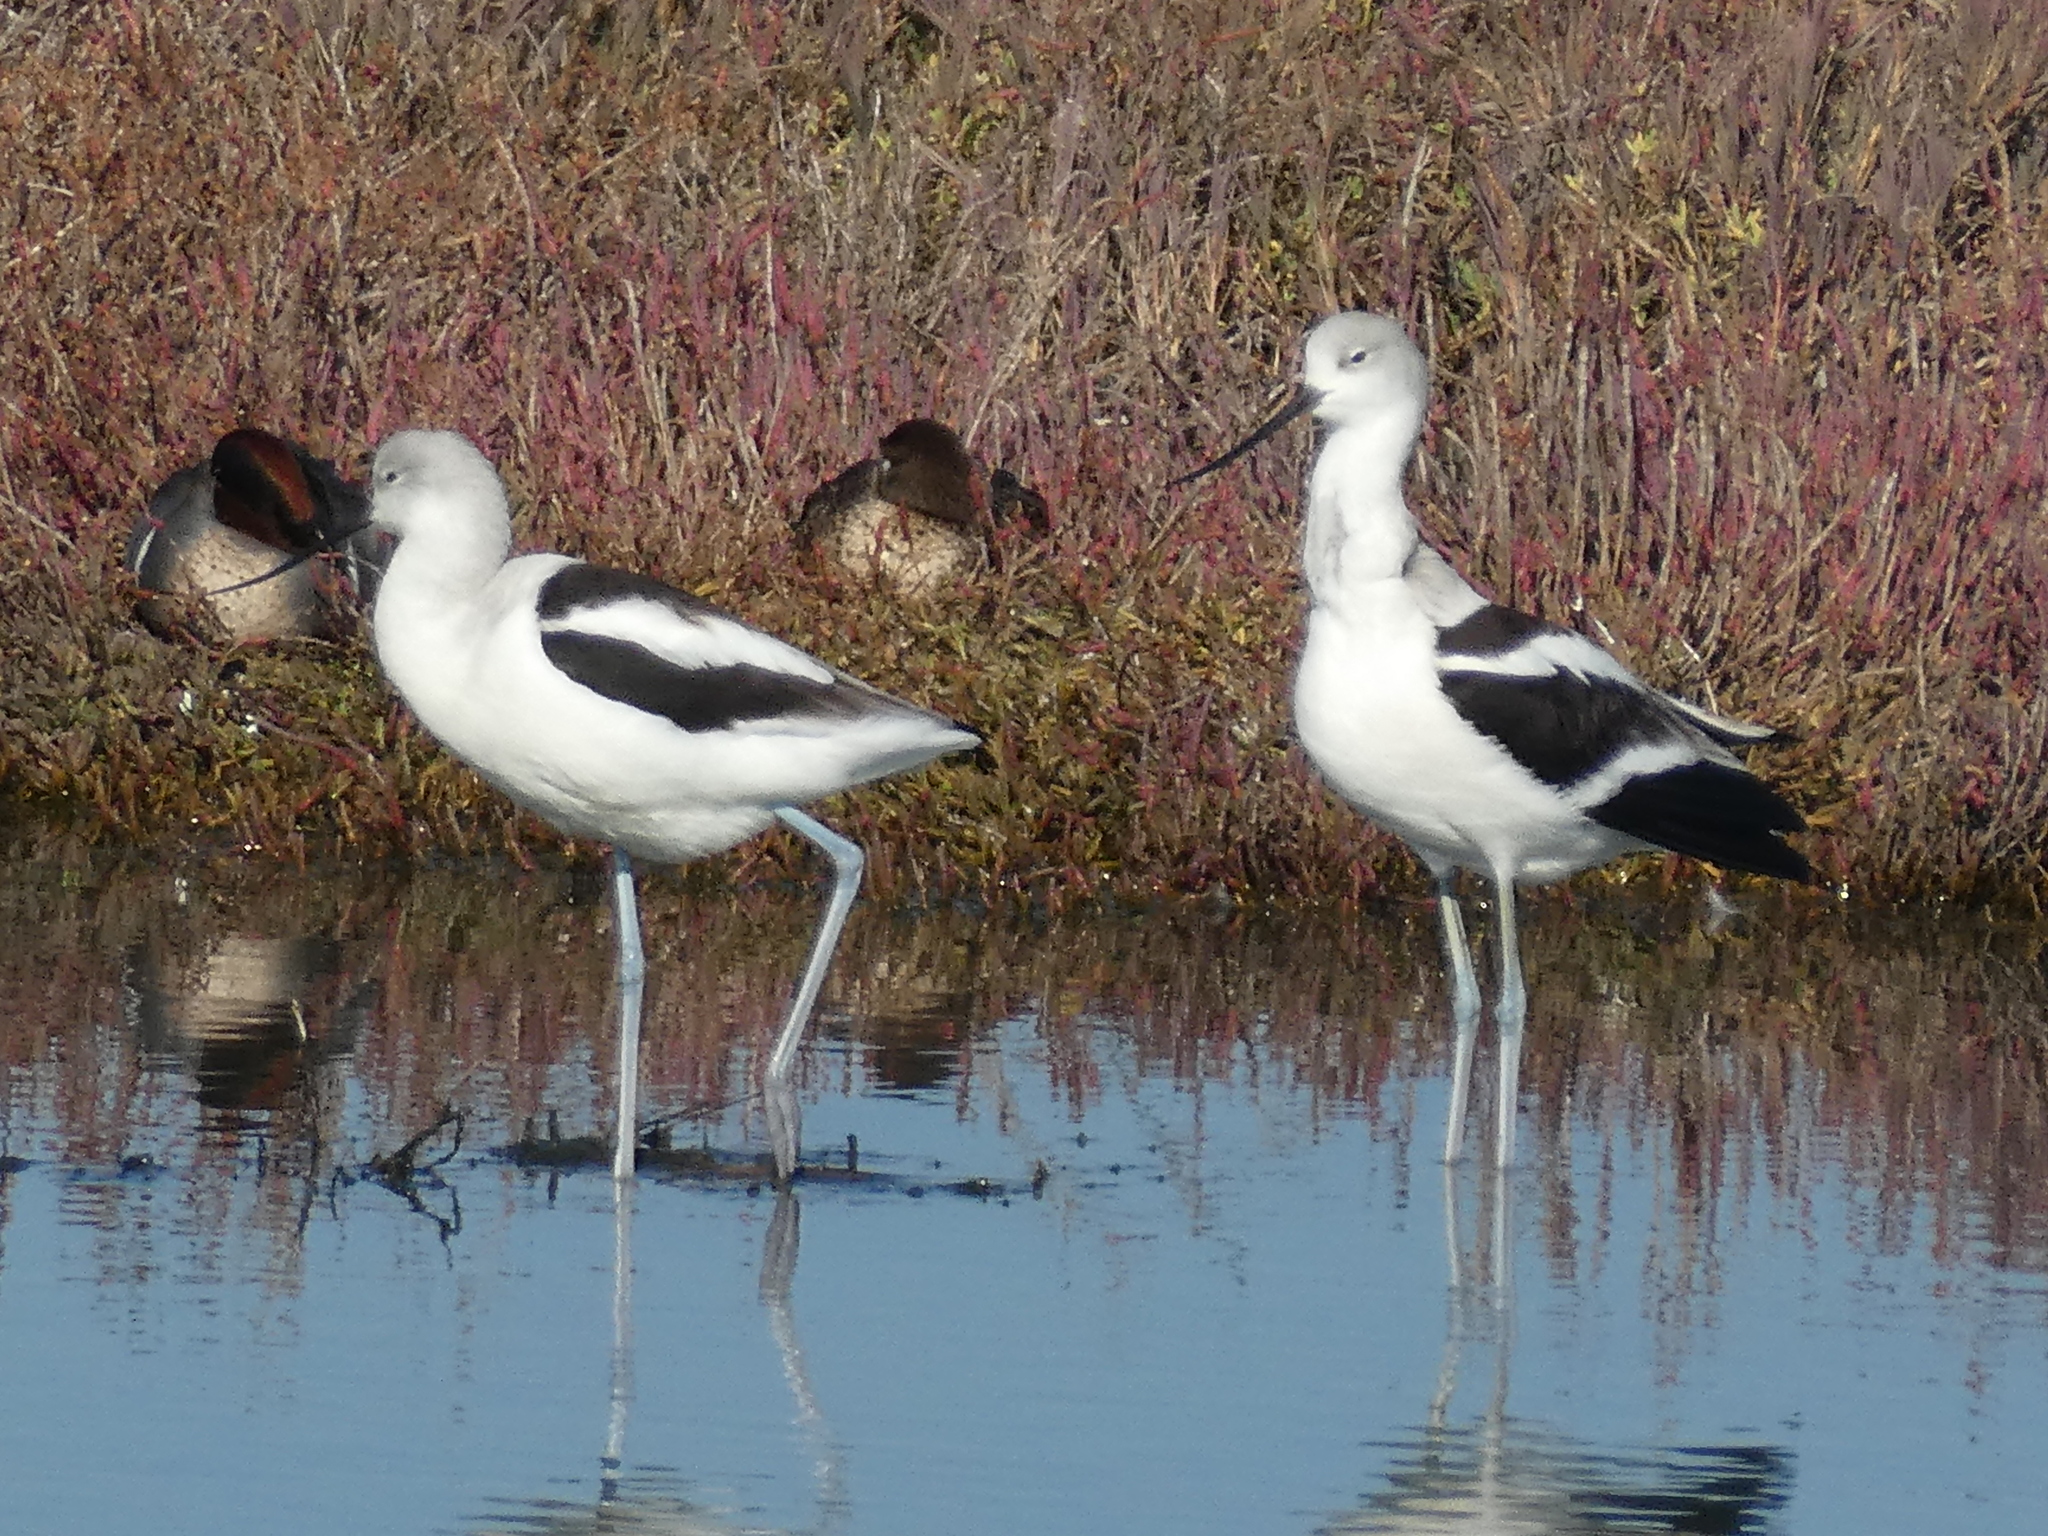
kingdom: Animalia
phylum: Chordata
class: Aves
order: Charadriiformes
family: Recurvirostridae
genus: Recurvirostra
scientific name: Recurvirostra americana
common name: American avocet
